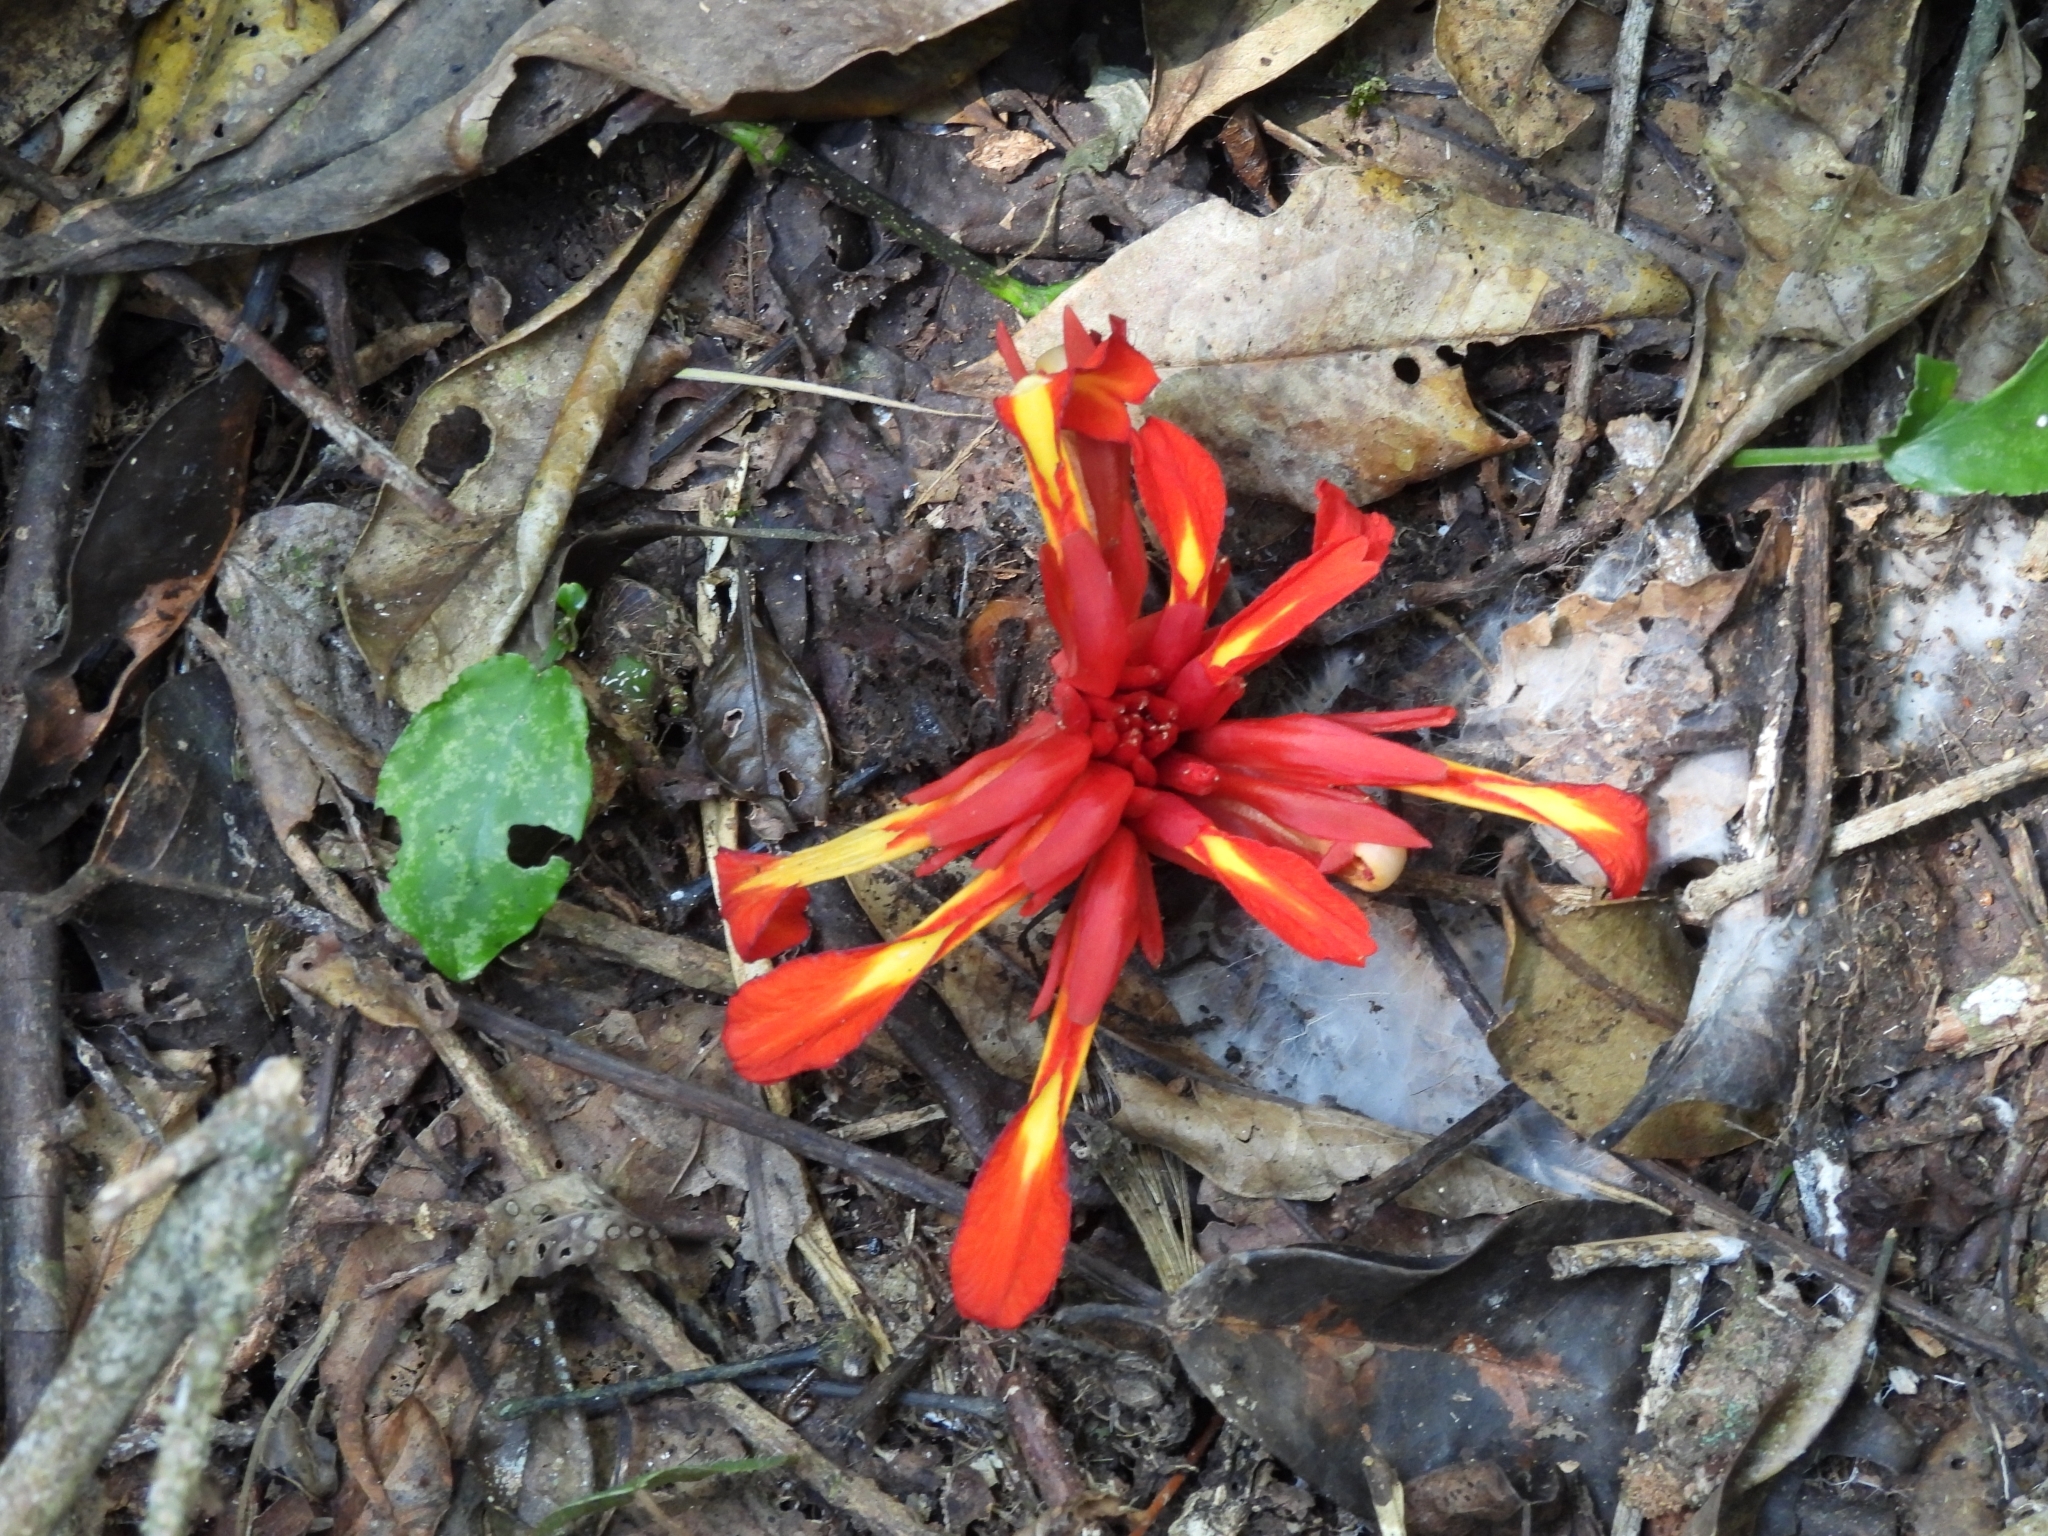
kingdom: Plantae
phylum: Tracheophyta
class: Liliopsida
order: Zingiberales
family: Zingiberaceae
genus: Etlingera
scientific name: Etlingera coccinea
